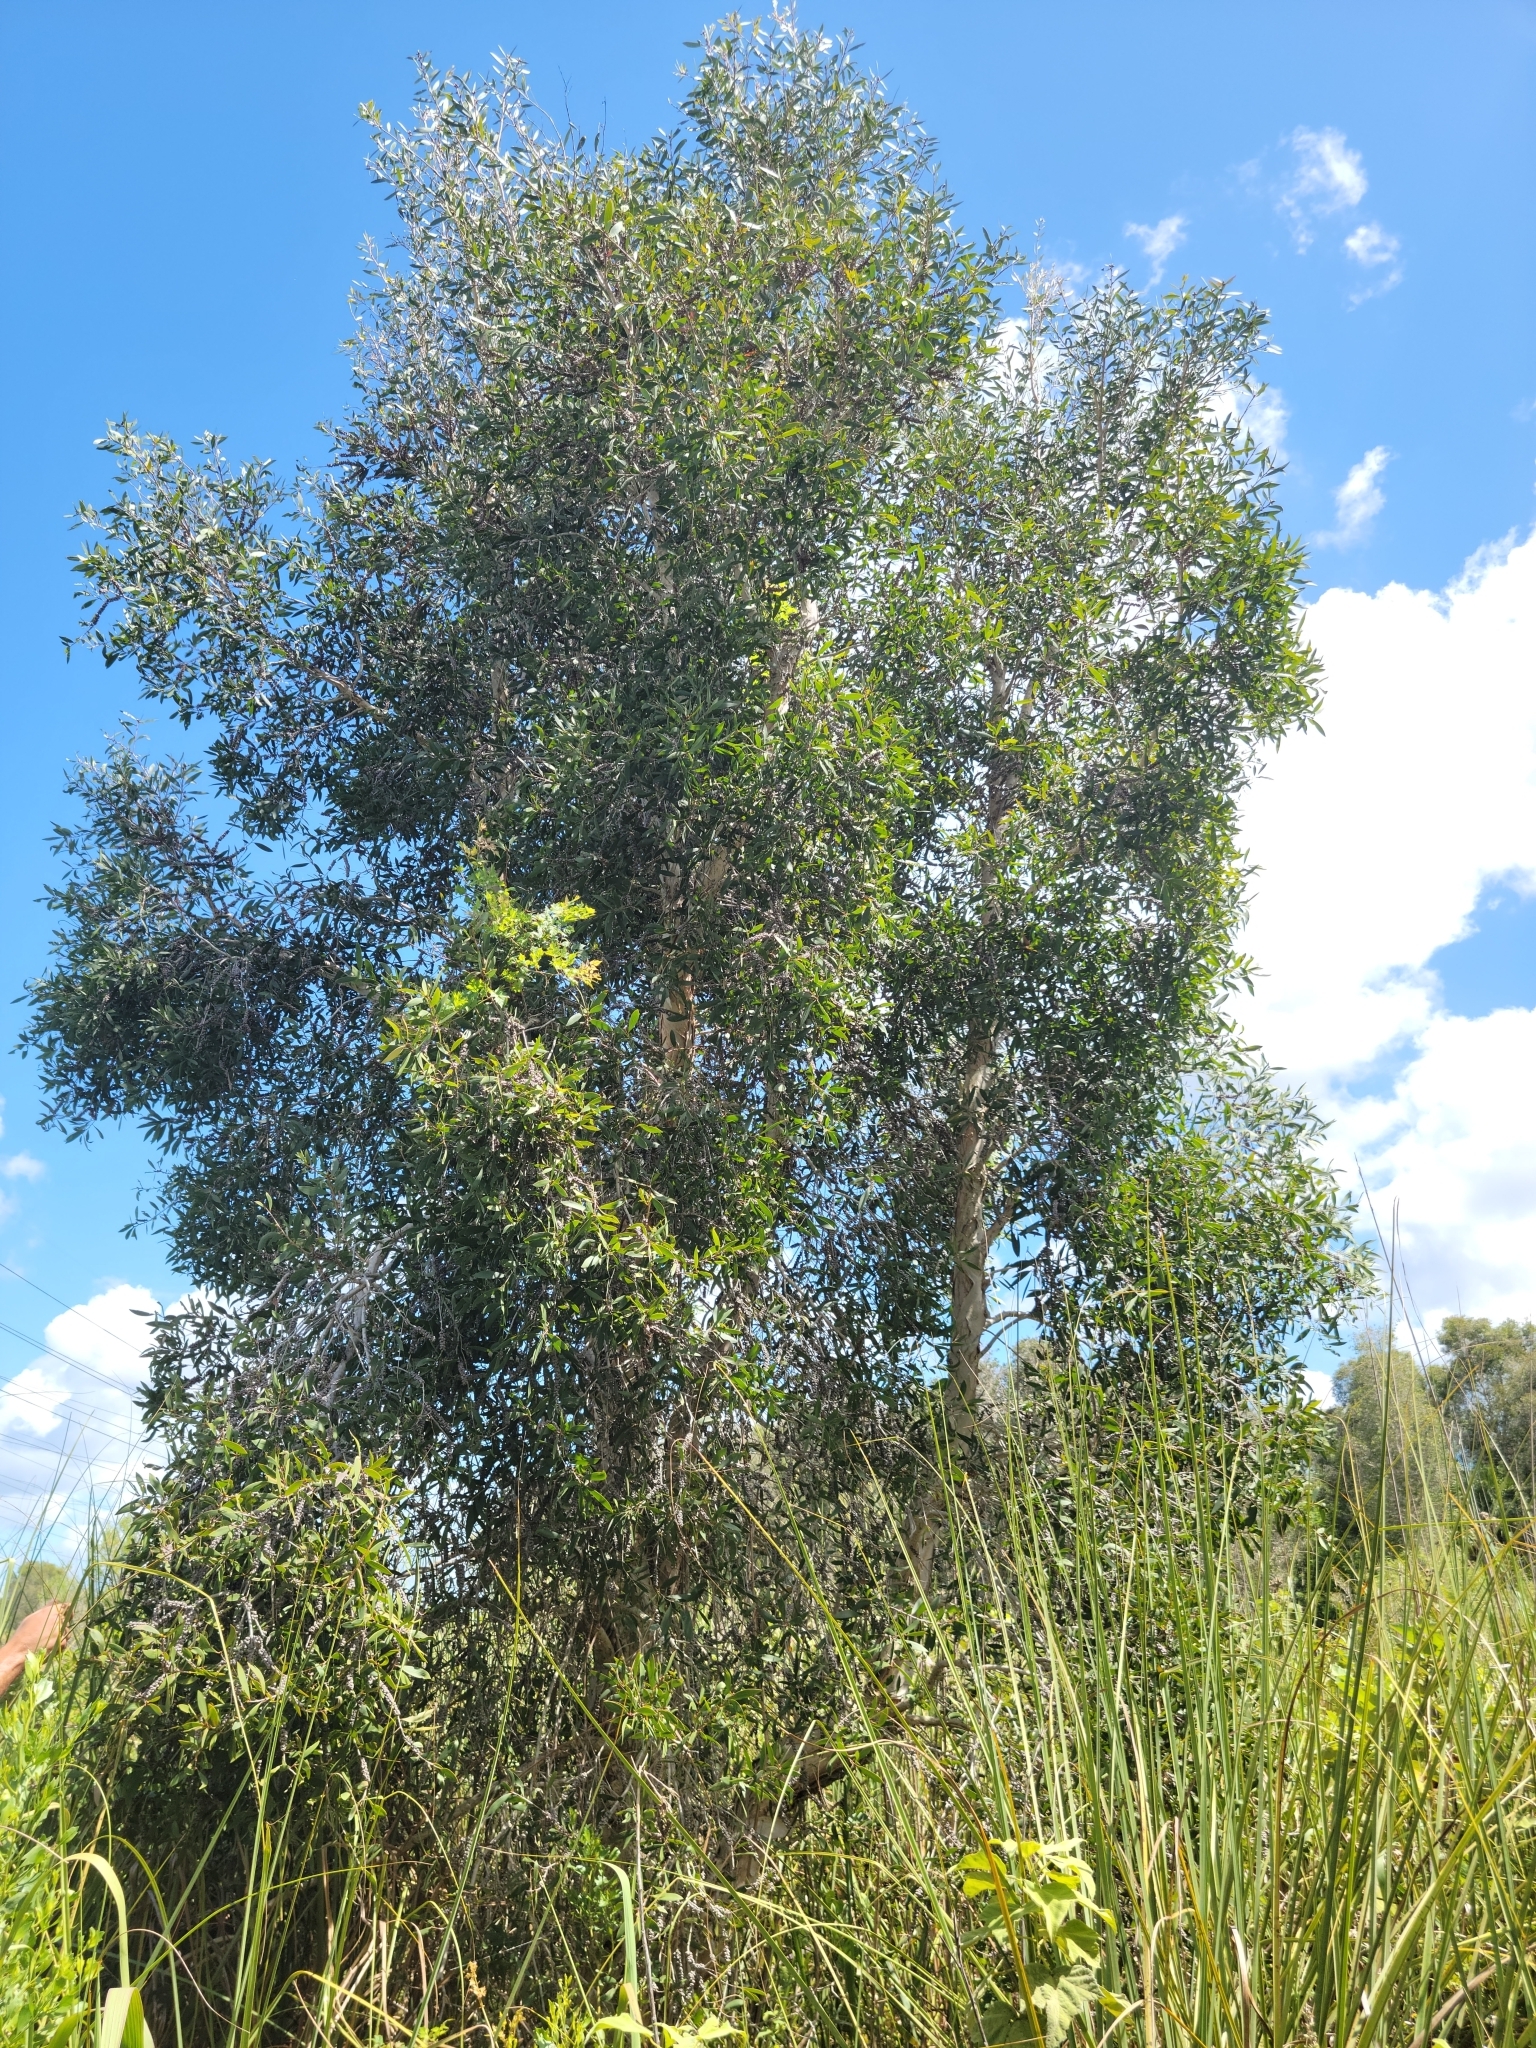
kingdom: Plantae
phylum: Tracheophyta
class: Magnoliopsida
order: Myrtales
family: Myrtaceae
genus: Melaleuca
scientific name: Melaleuca quinquenervia
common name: Punktree
